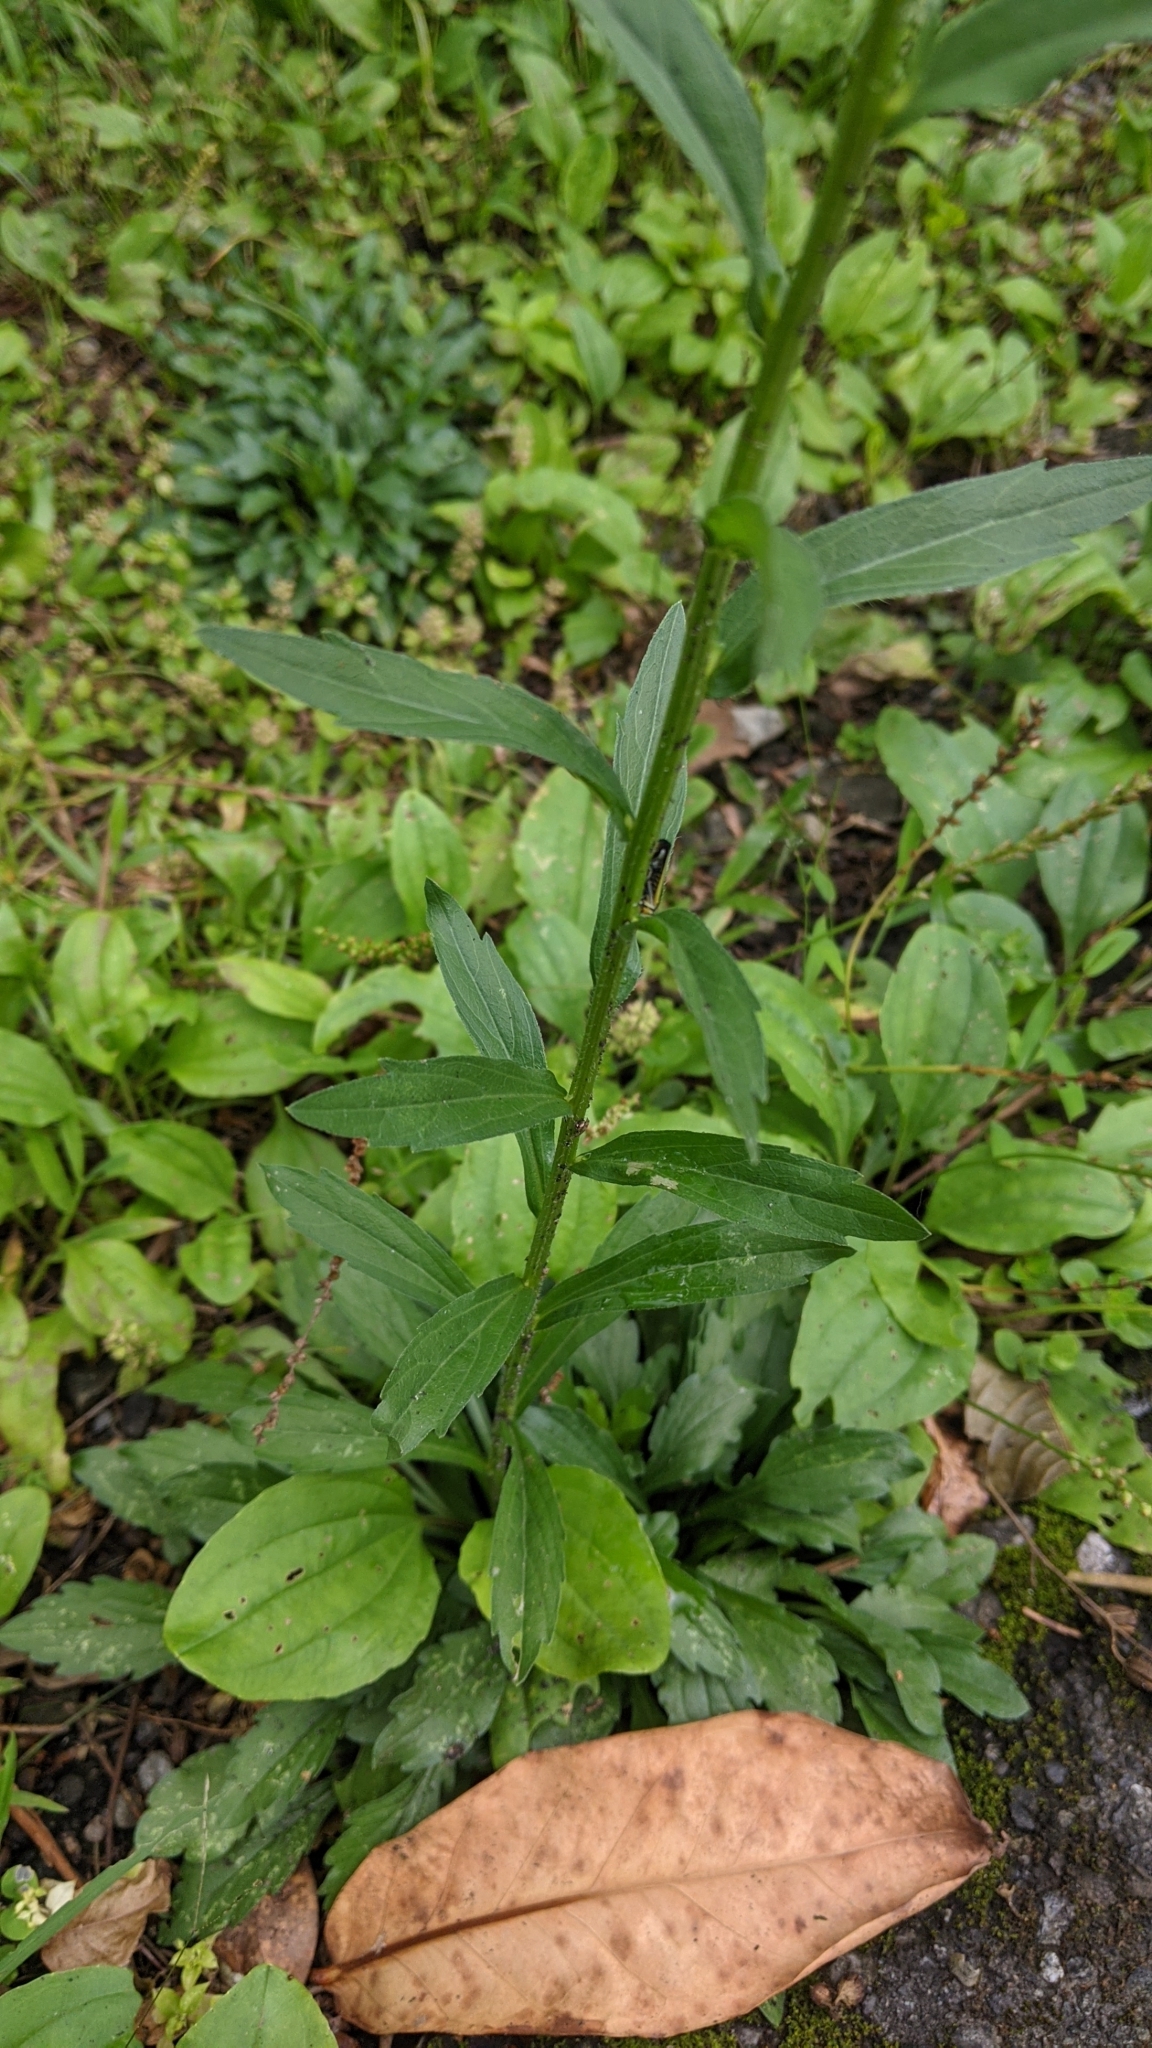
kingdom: Plantae
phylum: Tracheophyta
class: Magnoliopsida
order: Asterales
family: Asteraceae
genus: Erigeron
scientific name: Erigeron annuus
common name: Tall fleabane
